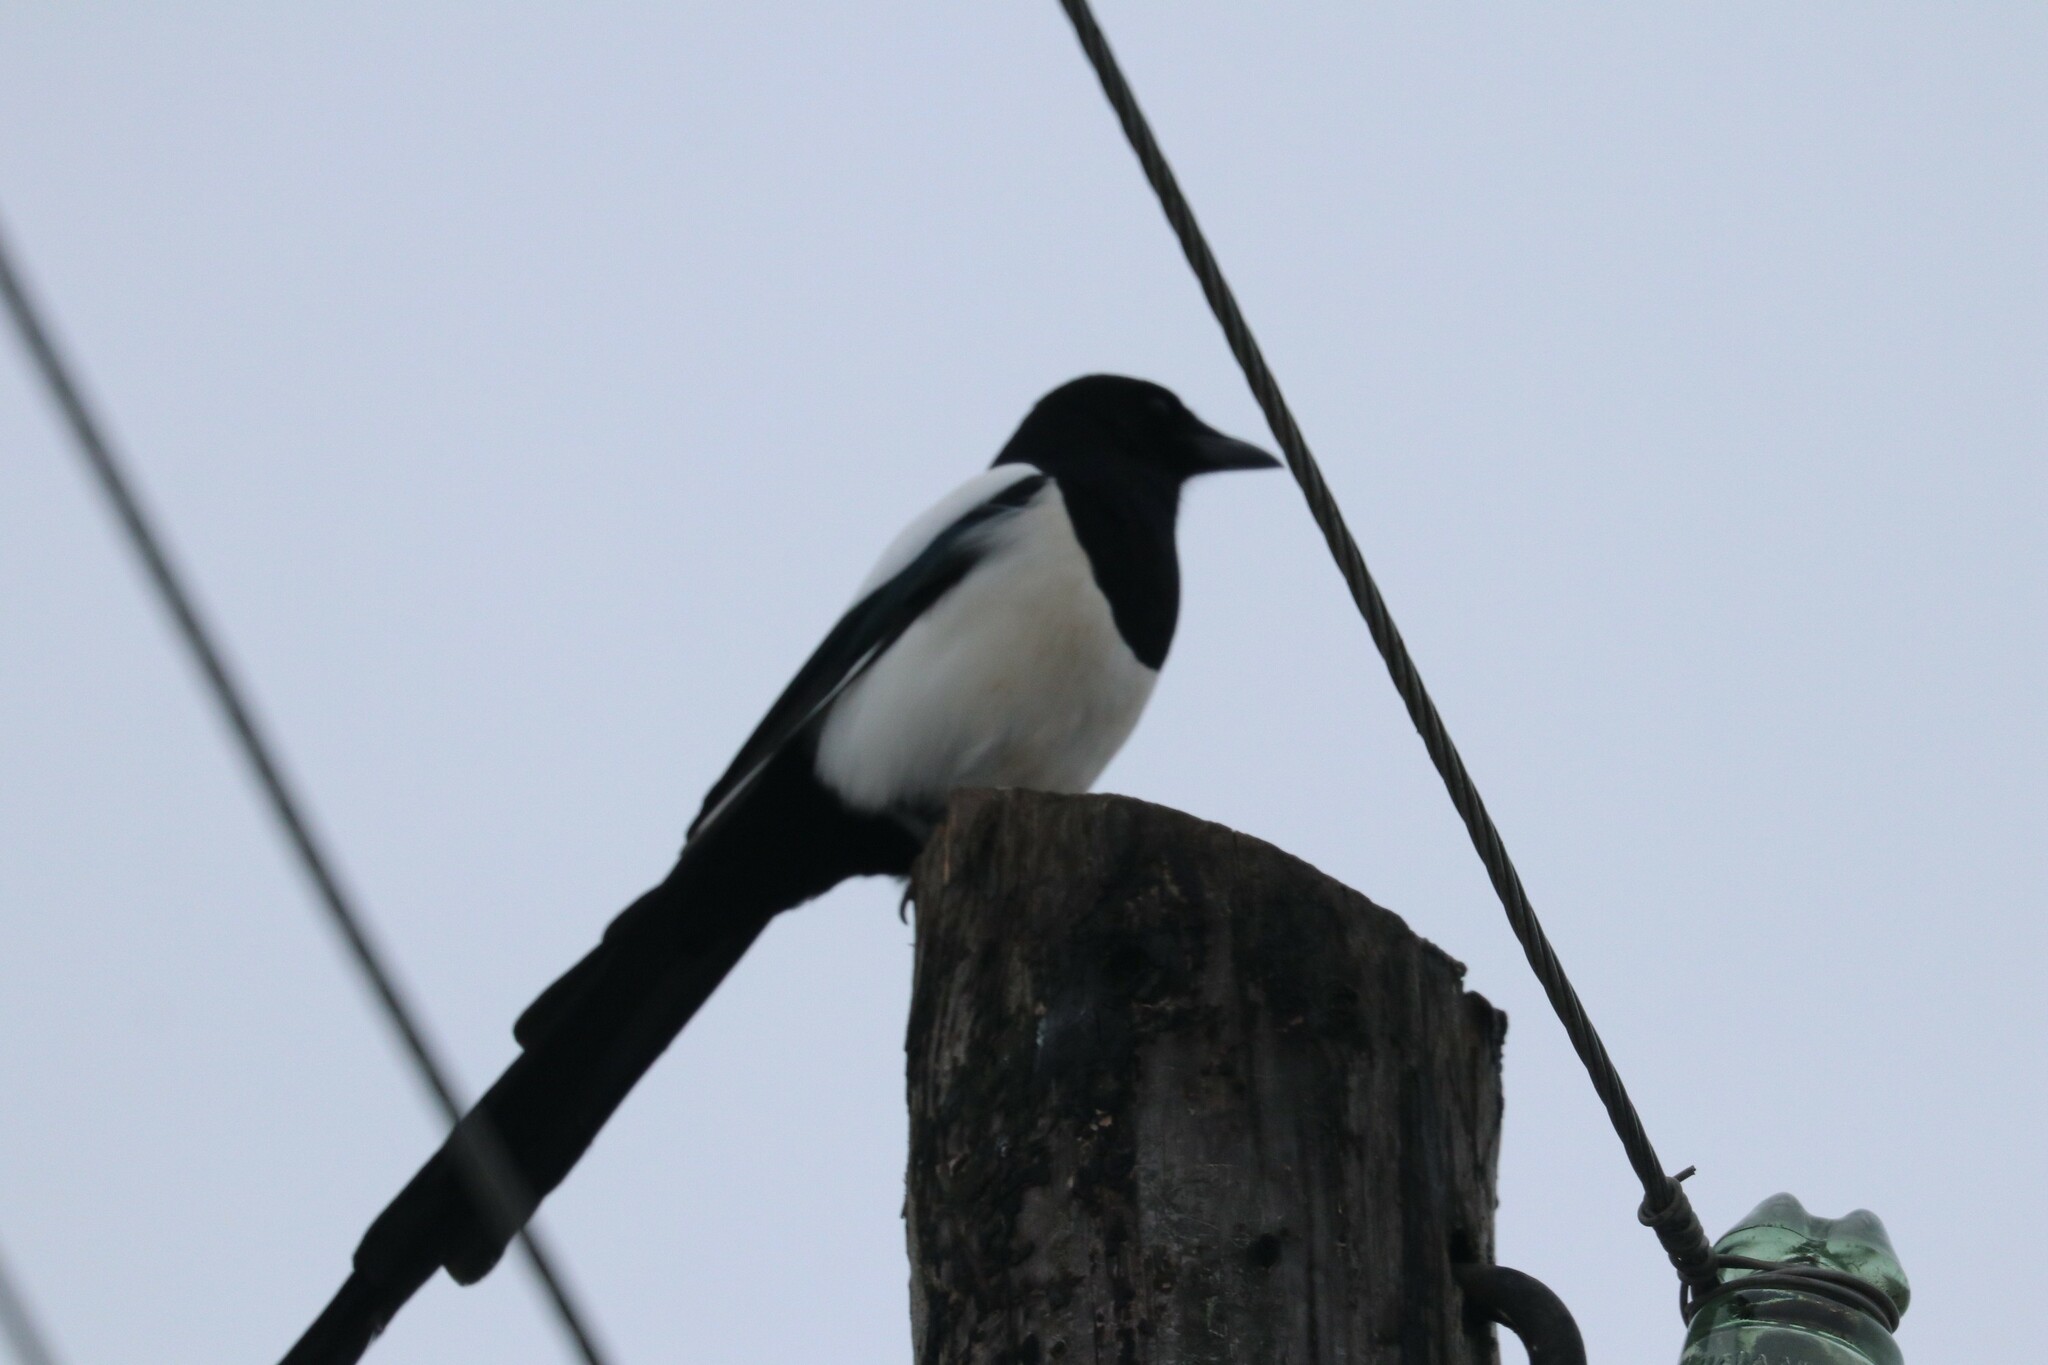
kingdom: Animalia
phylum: Chordata
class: Aves
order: Passeriformes
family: Corvidae
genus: Pica
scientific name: Pica pica
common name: Eurasian magpie
